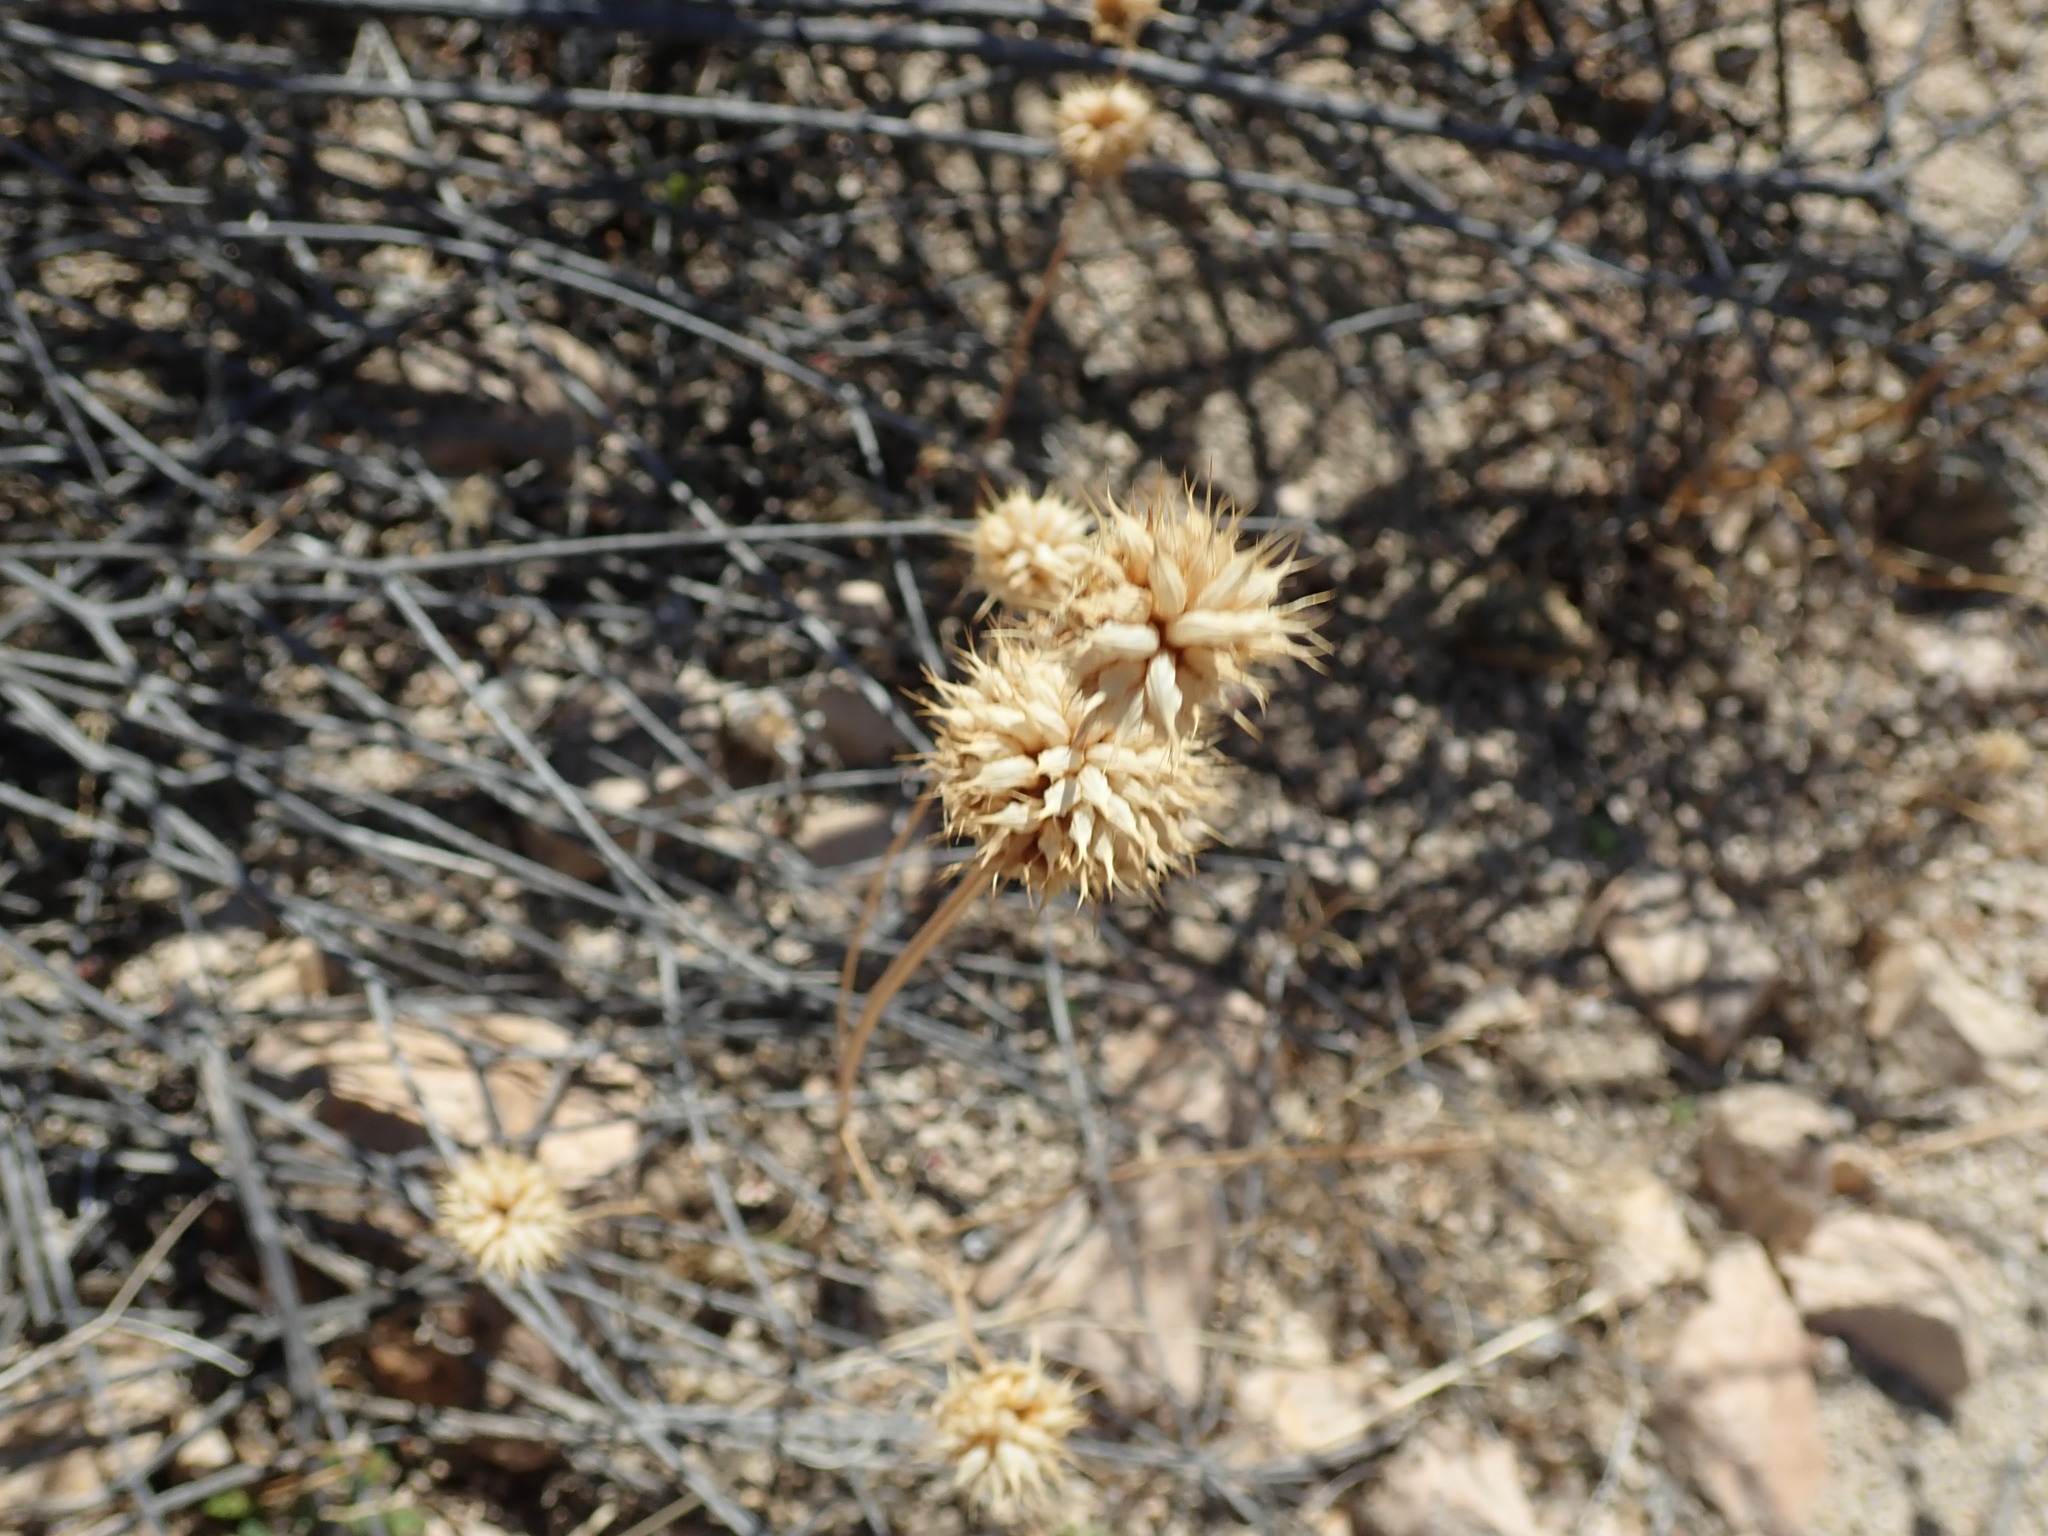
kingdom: Plantae
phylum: Tracheophyta
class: Magnoliopsida
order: Lamiales
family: Lamiaceae
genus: Salvia
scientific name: Salvia columbariae
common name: Chia
